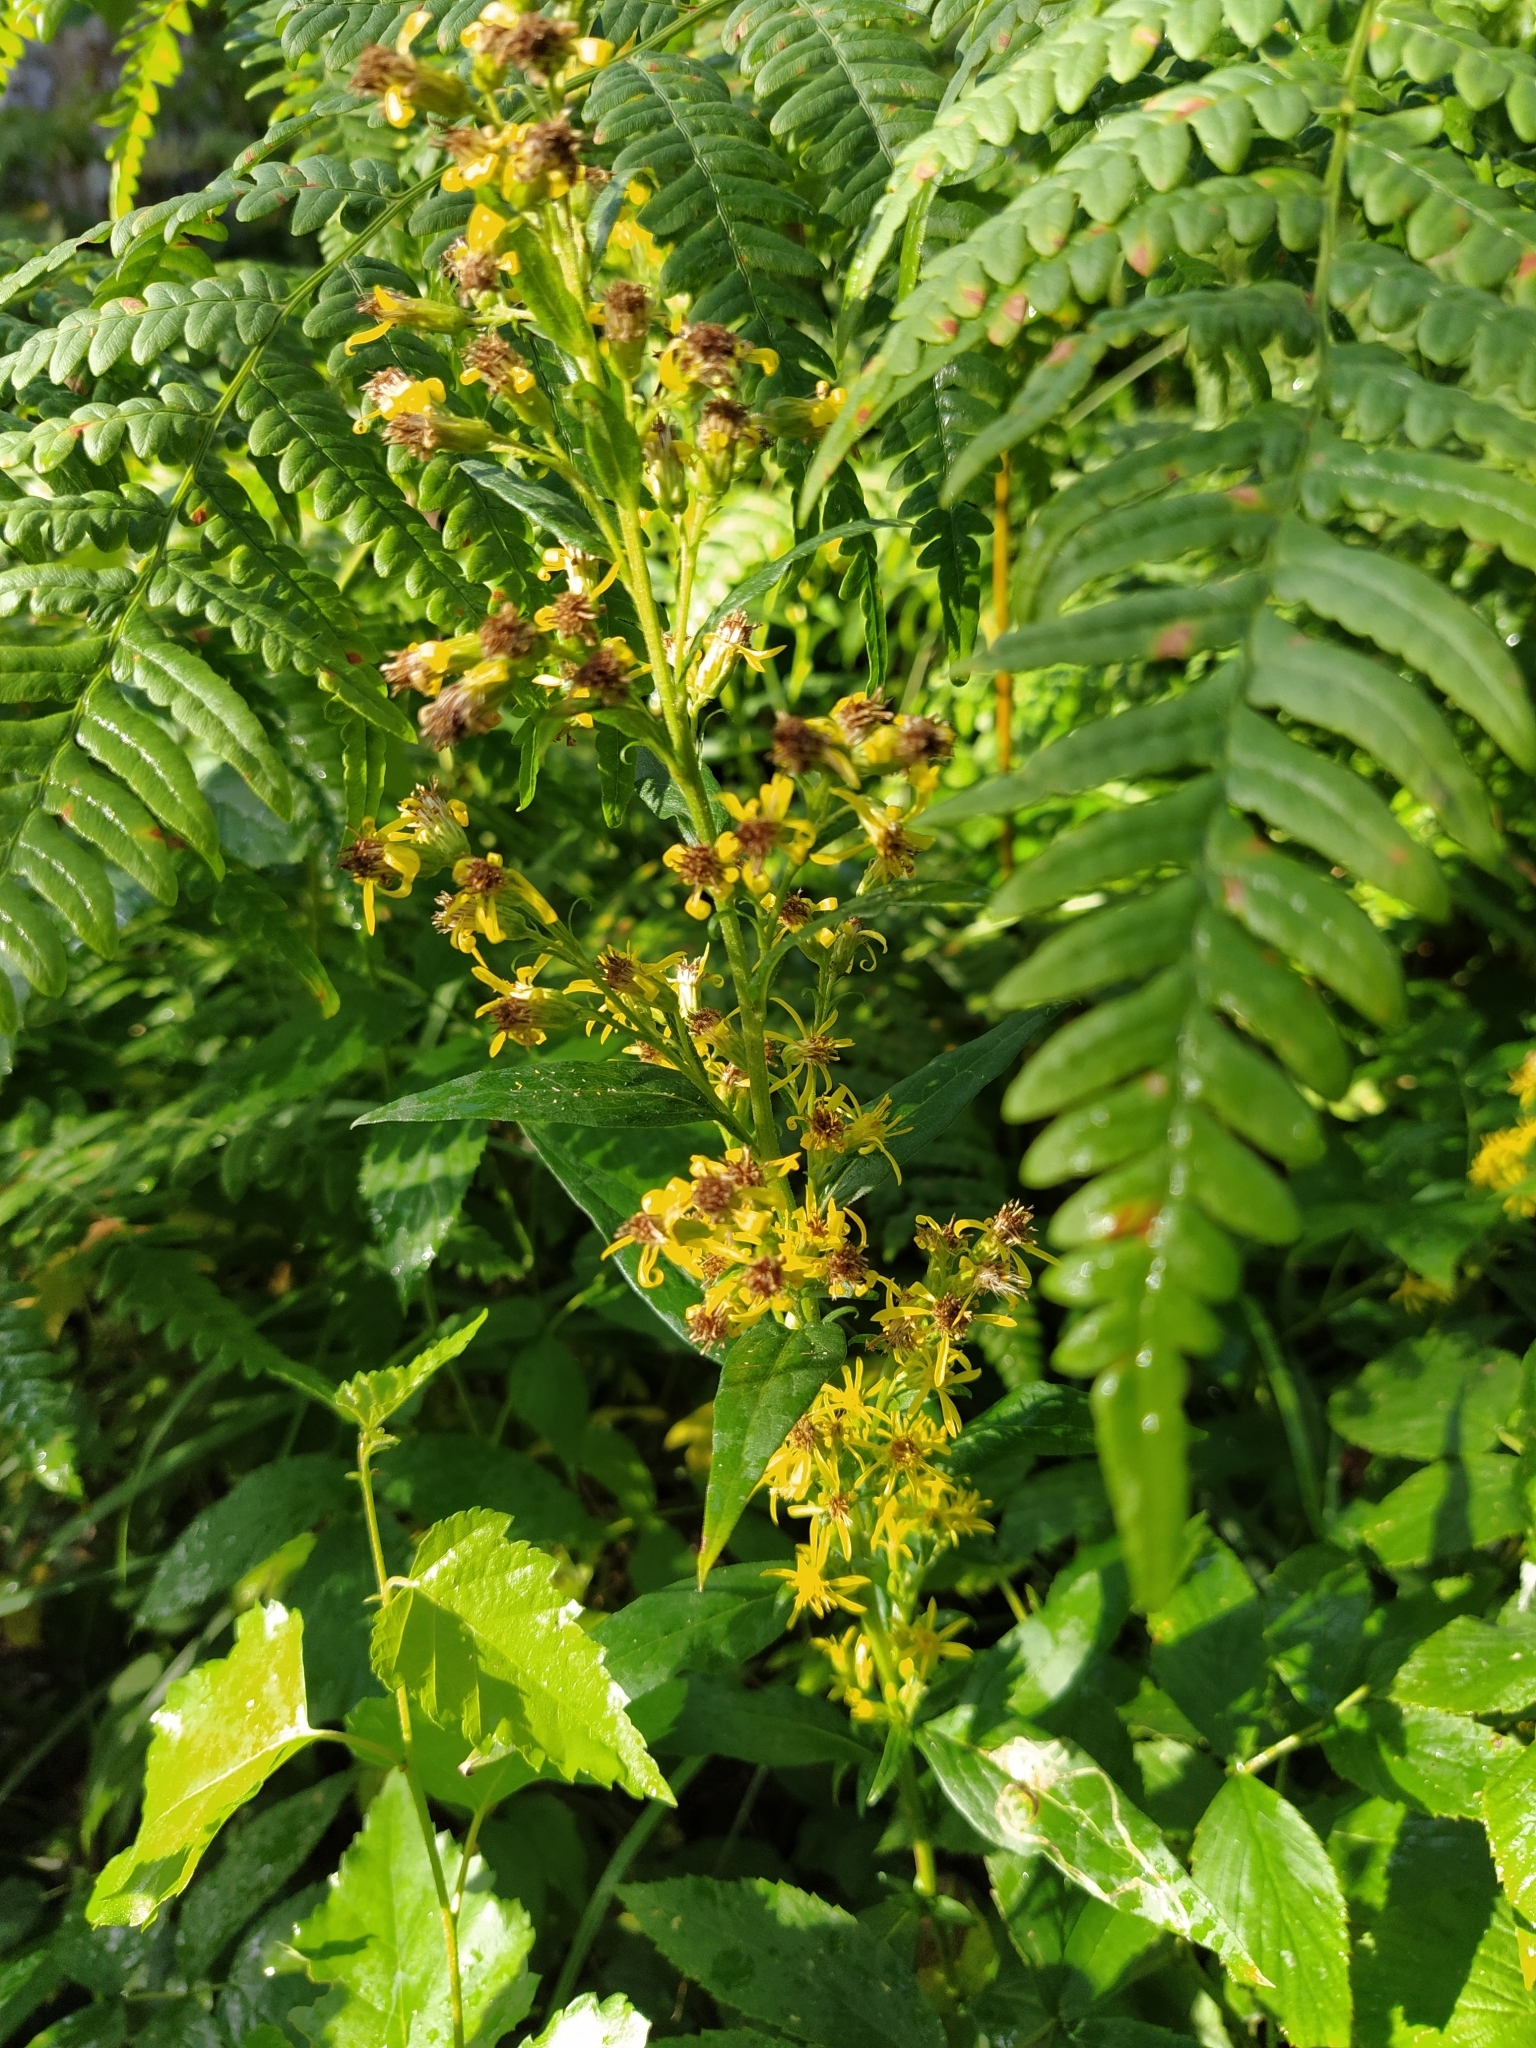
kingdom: Plantae
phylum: Tracheophyta
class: Magnoliopsida
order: Asterales
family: Asteraceae
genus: Solidago
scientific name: Solidago virgaurea
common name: Goldenrod
